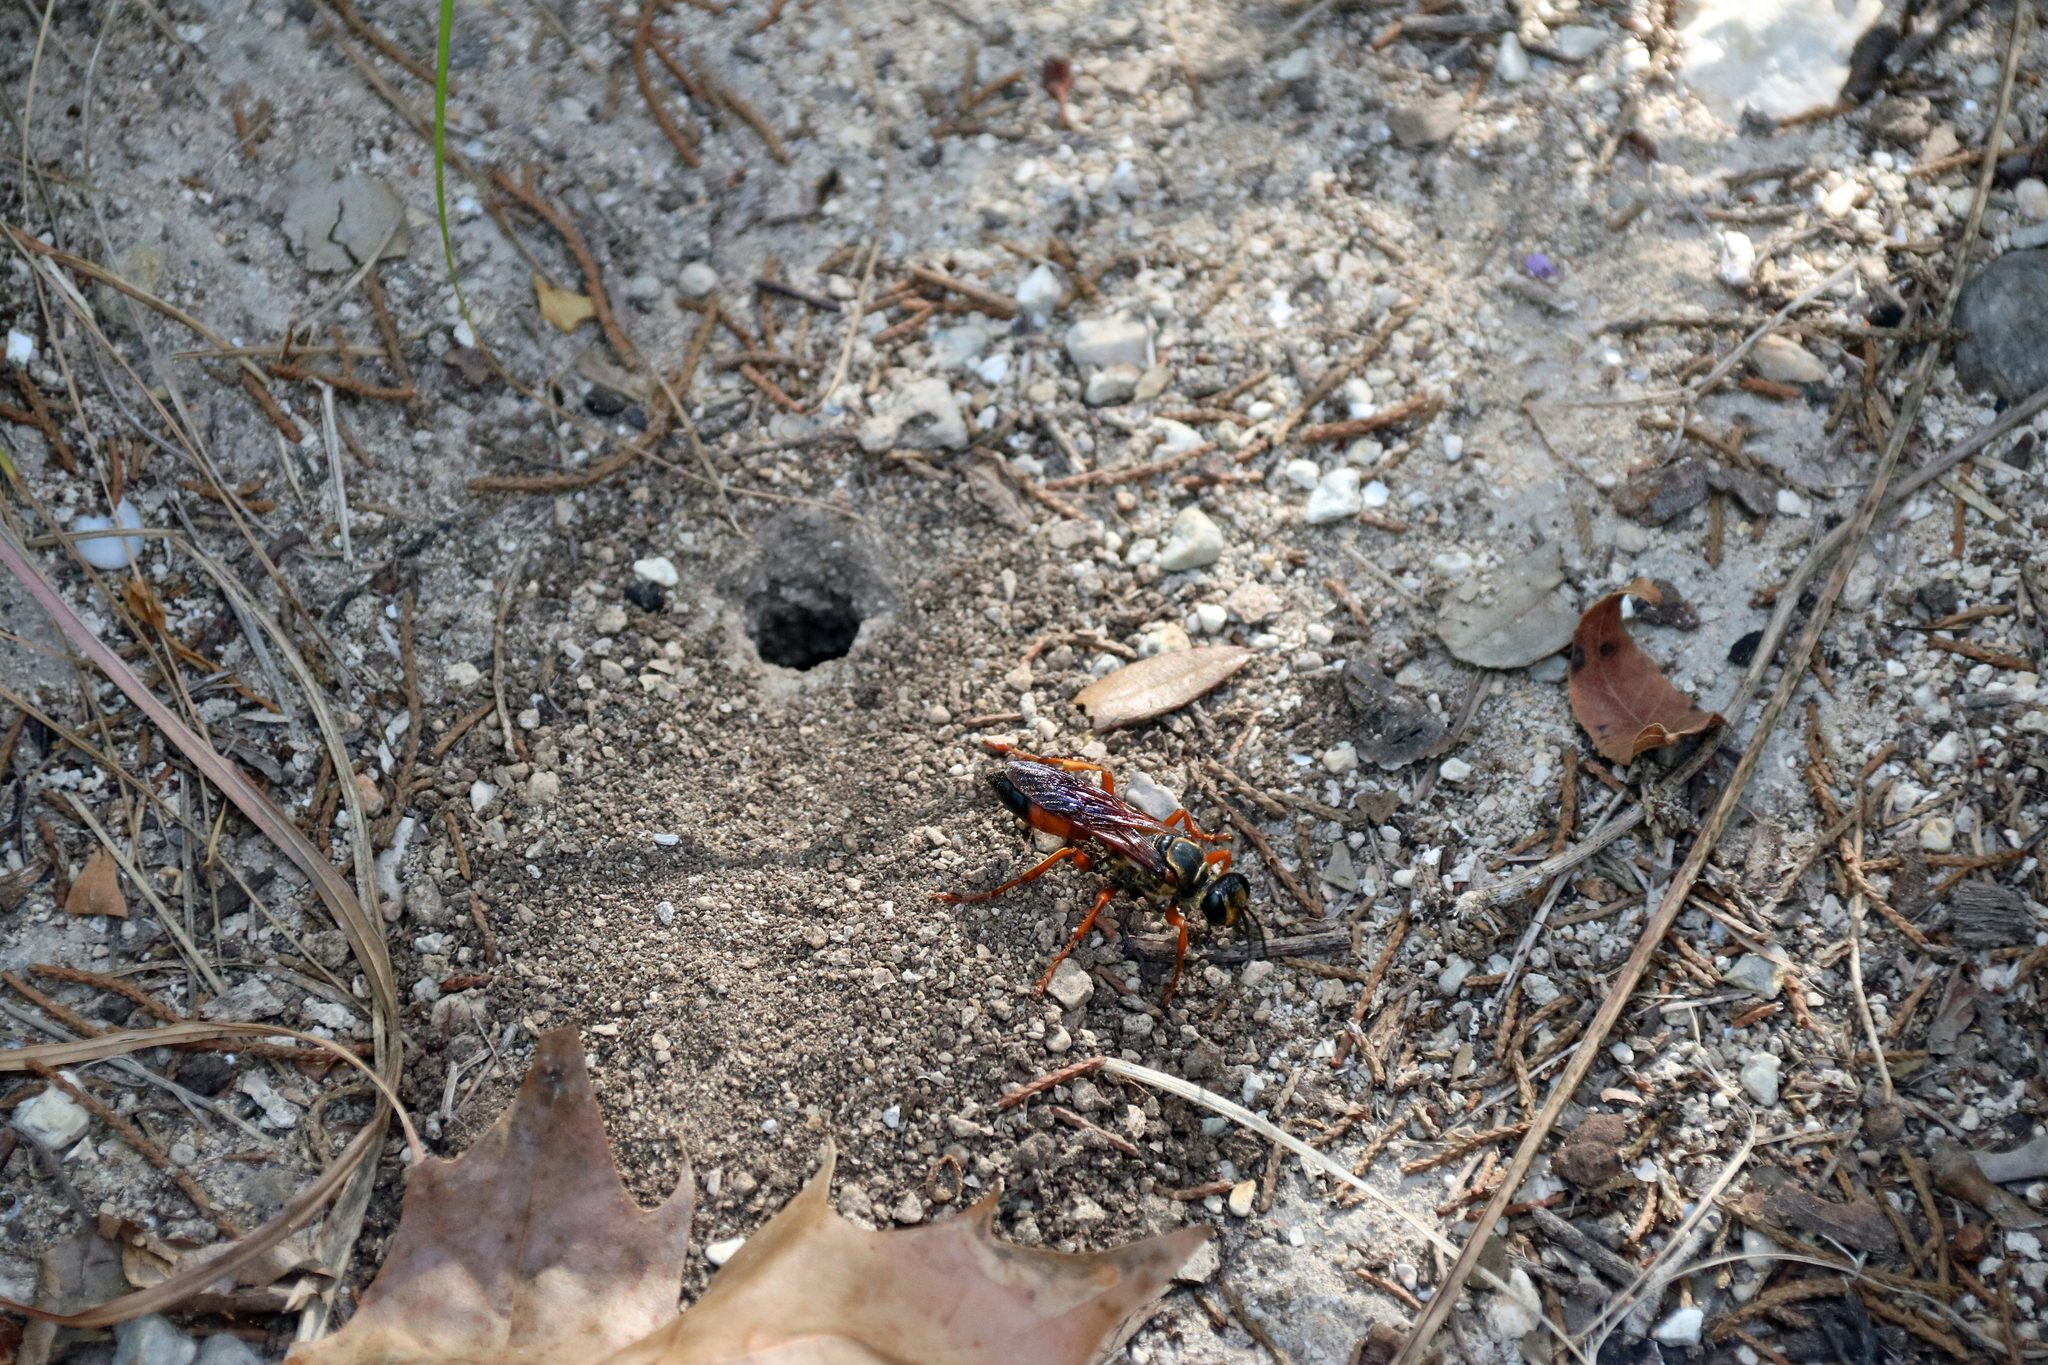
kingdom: Animalia
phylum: Arthropoda
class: Insecta
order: Hymenoptera
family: Sphecidae
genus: Sphex
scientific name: Sphex ichneumoneus
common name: Great golden digger wasp
